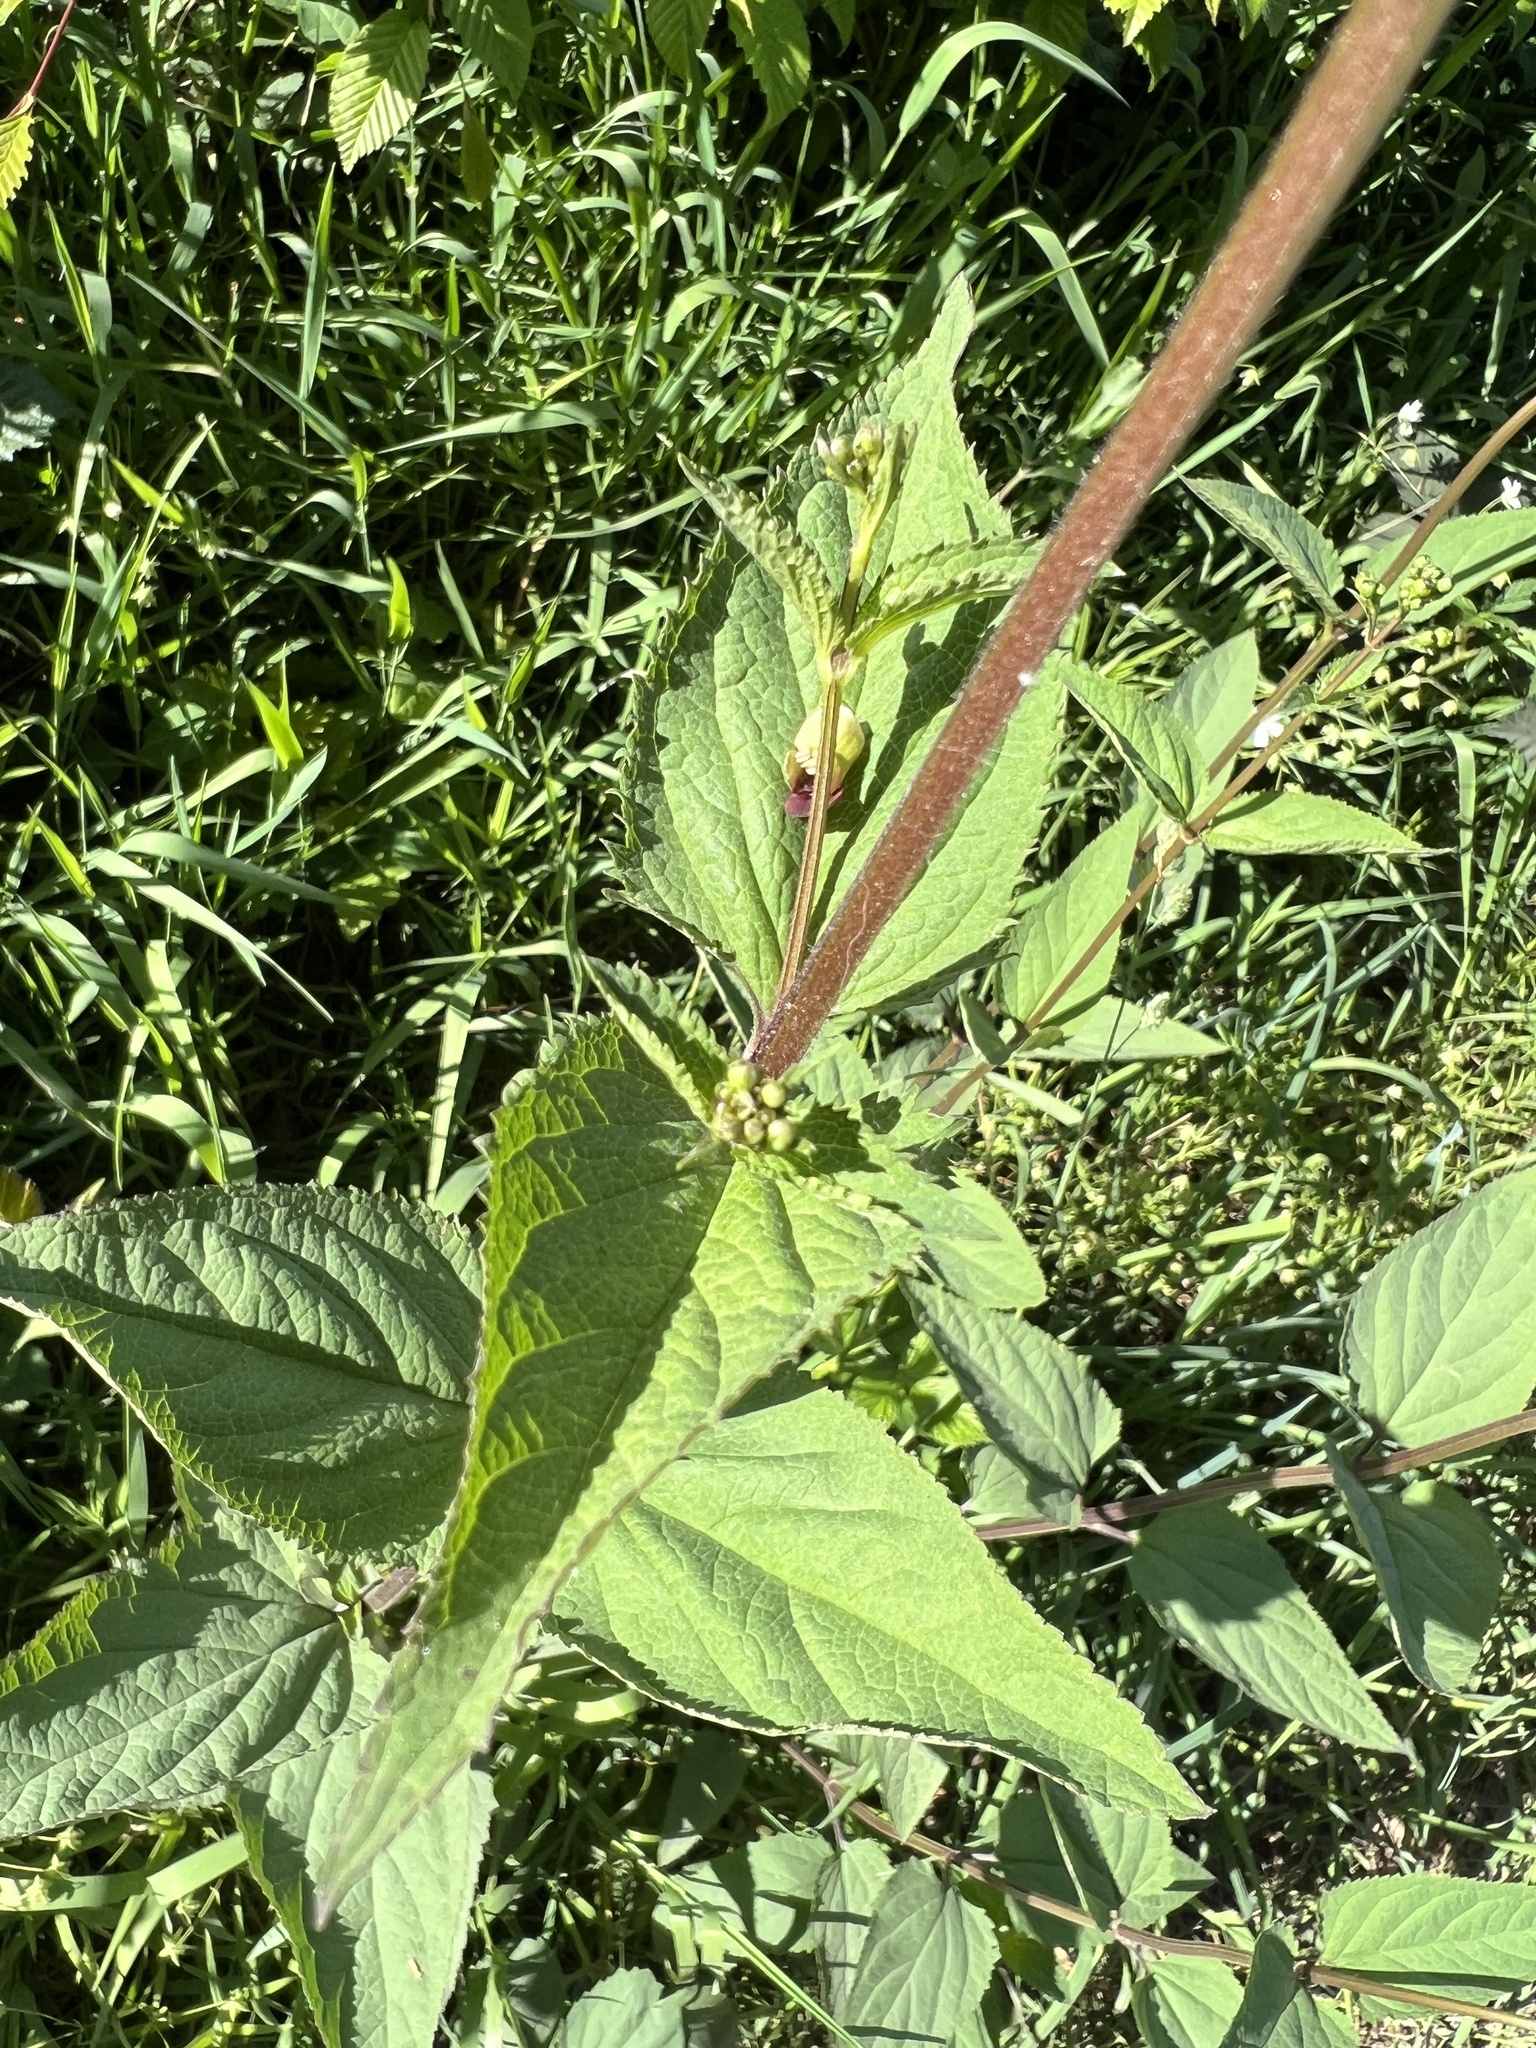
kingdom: Plantae
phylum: Tracheophyta
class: Magnoliopsida
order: Lamiales
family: Scrophulariaceae
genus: Scrophularia
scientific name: Scrophularia nodosa
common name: Common figwort
